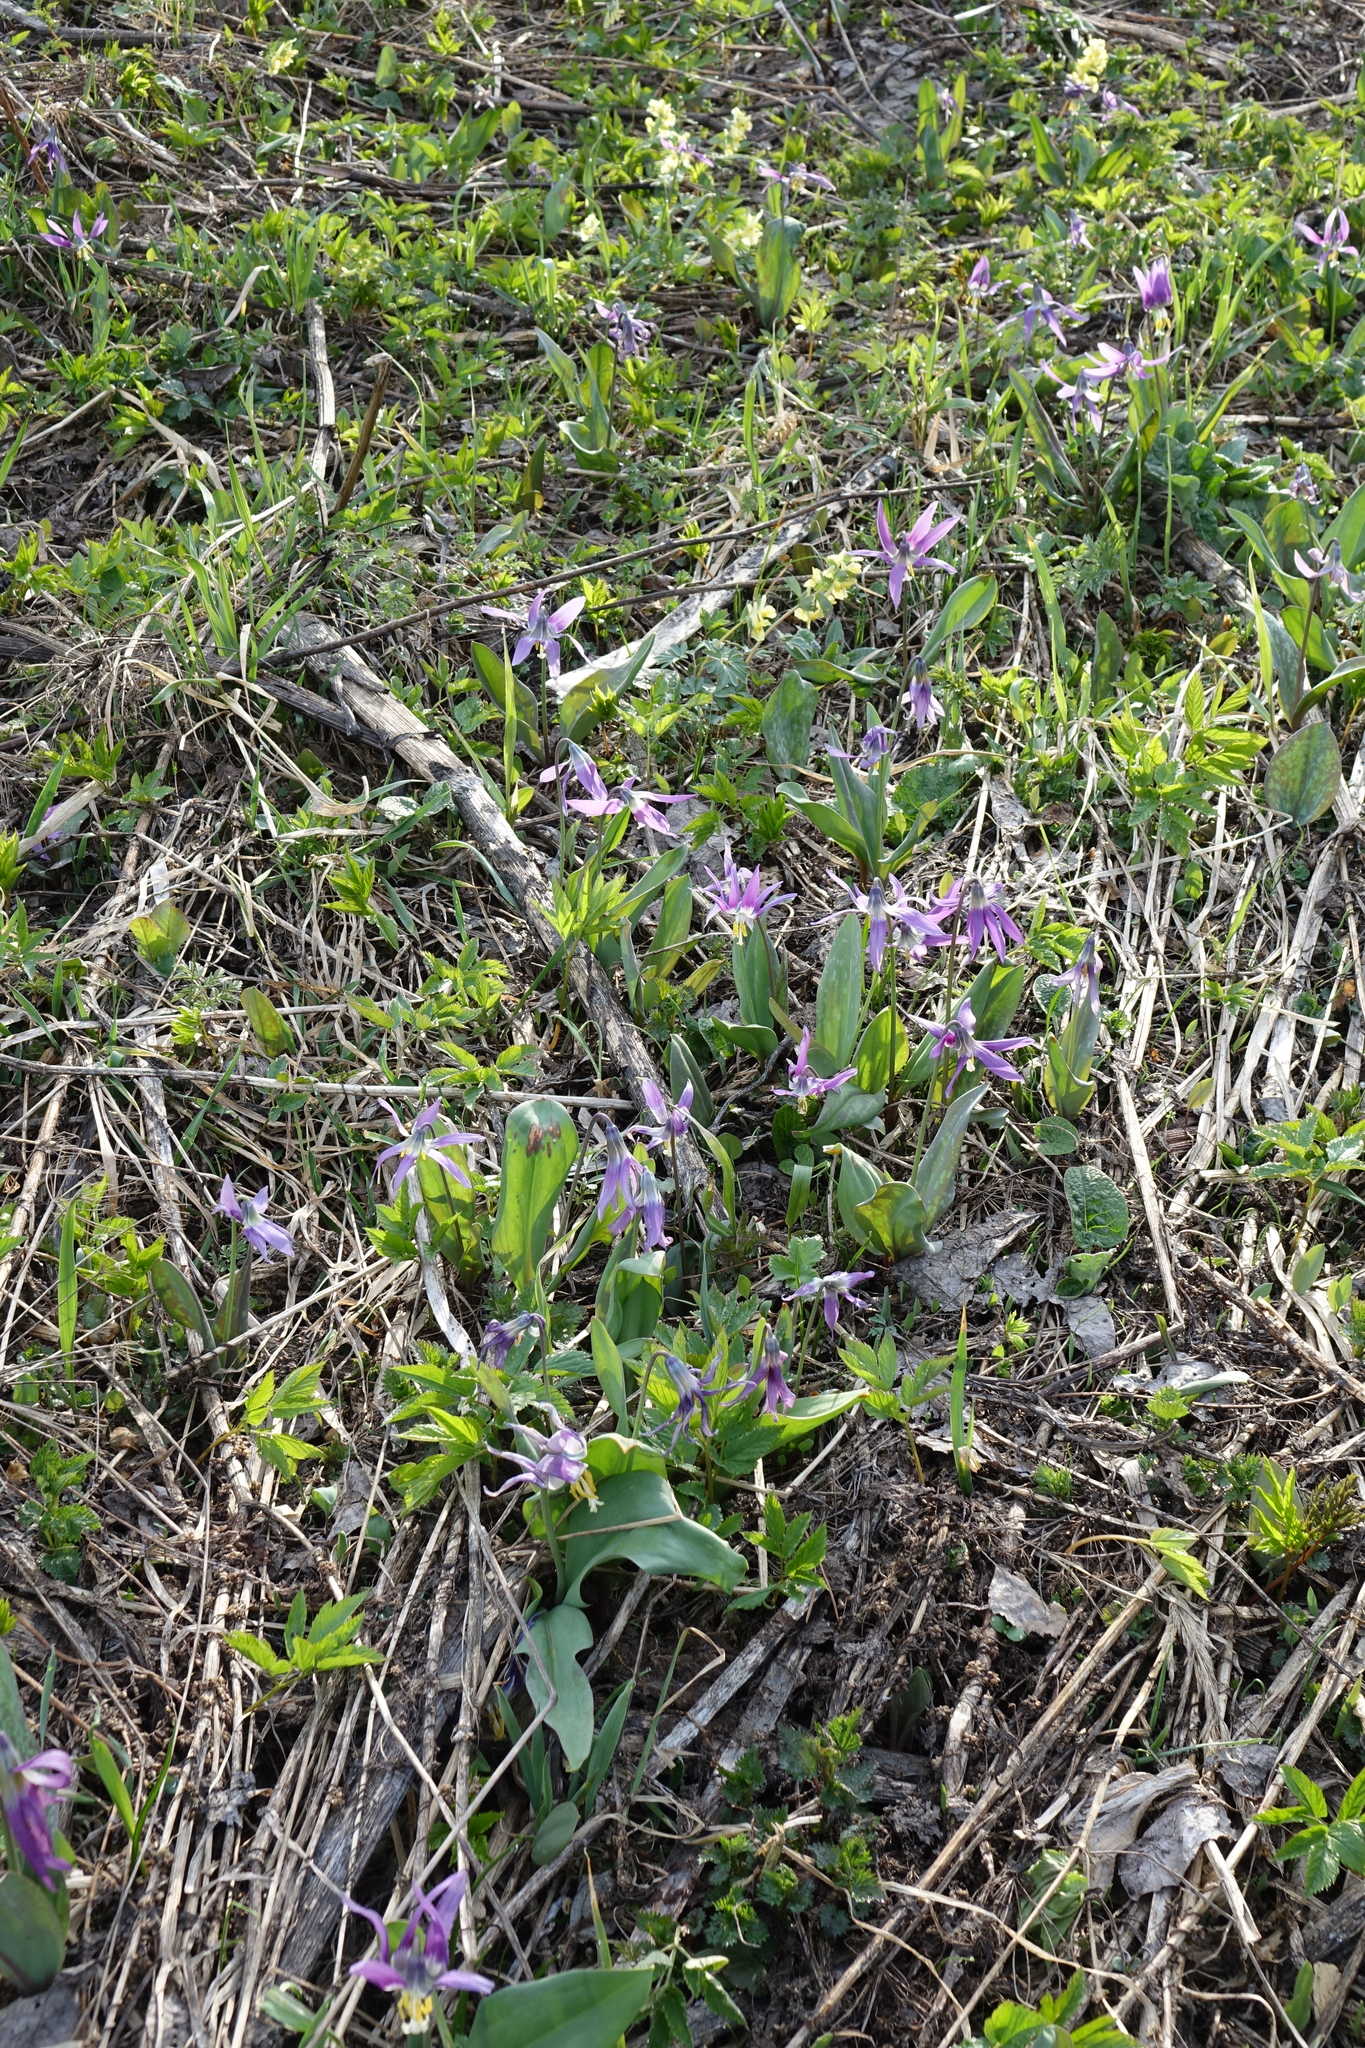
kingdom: Plantae
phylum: Tracheophyta
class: Liliopsida
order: Liliales
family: Liliaceae
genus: Erythronium
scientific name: Erythronium sibiricum
